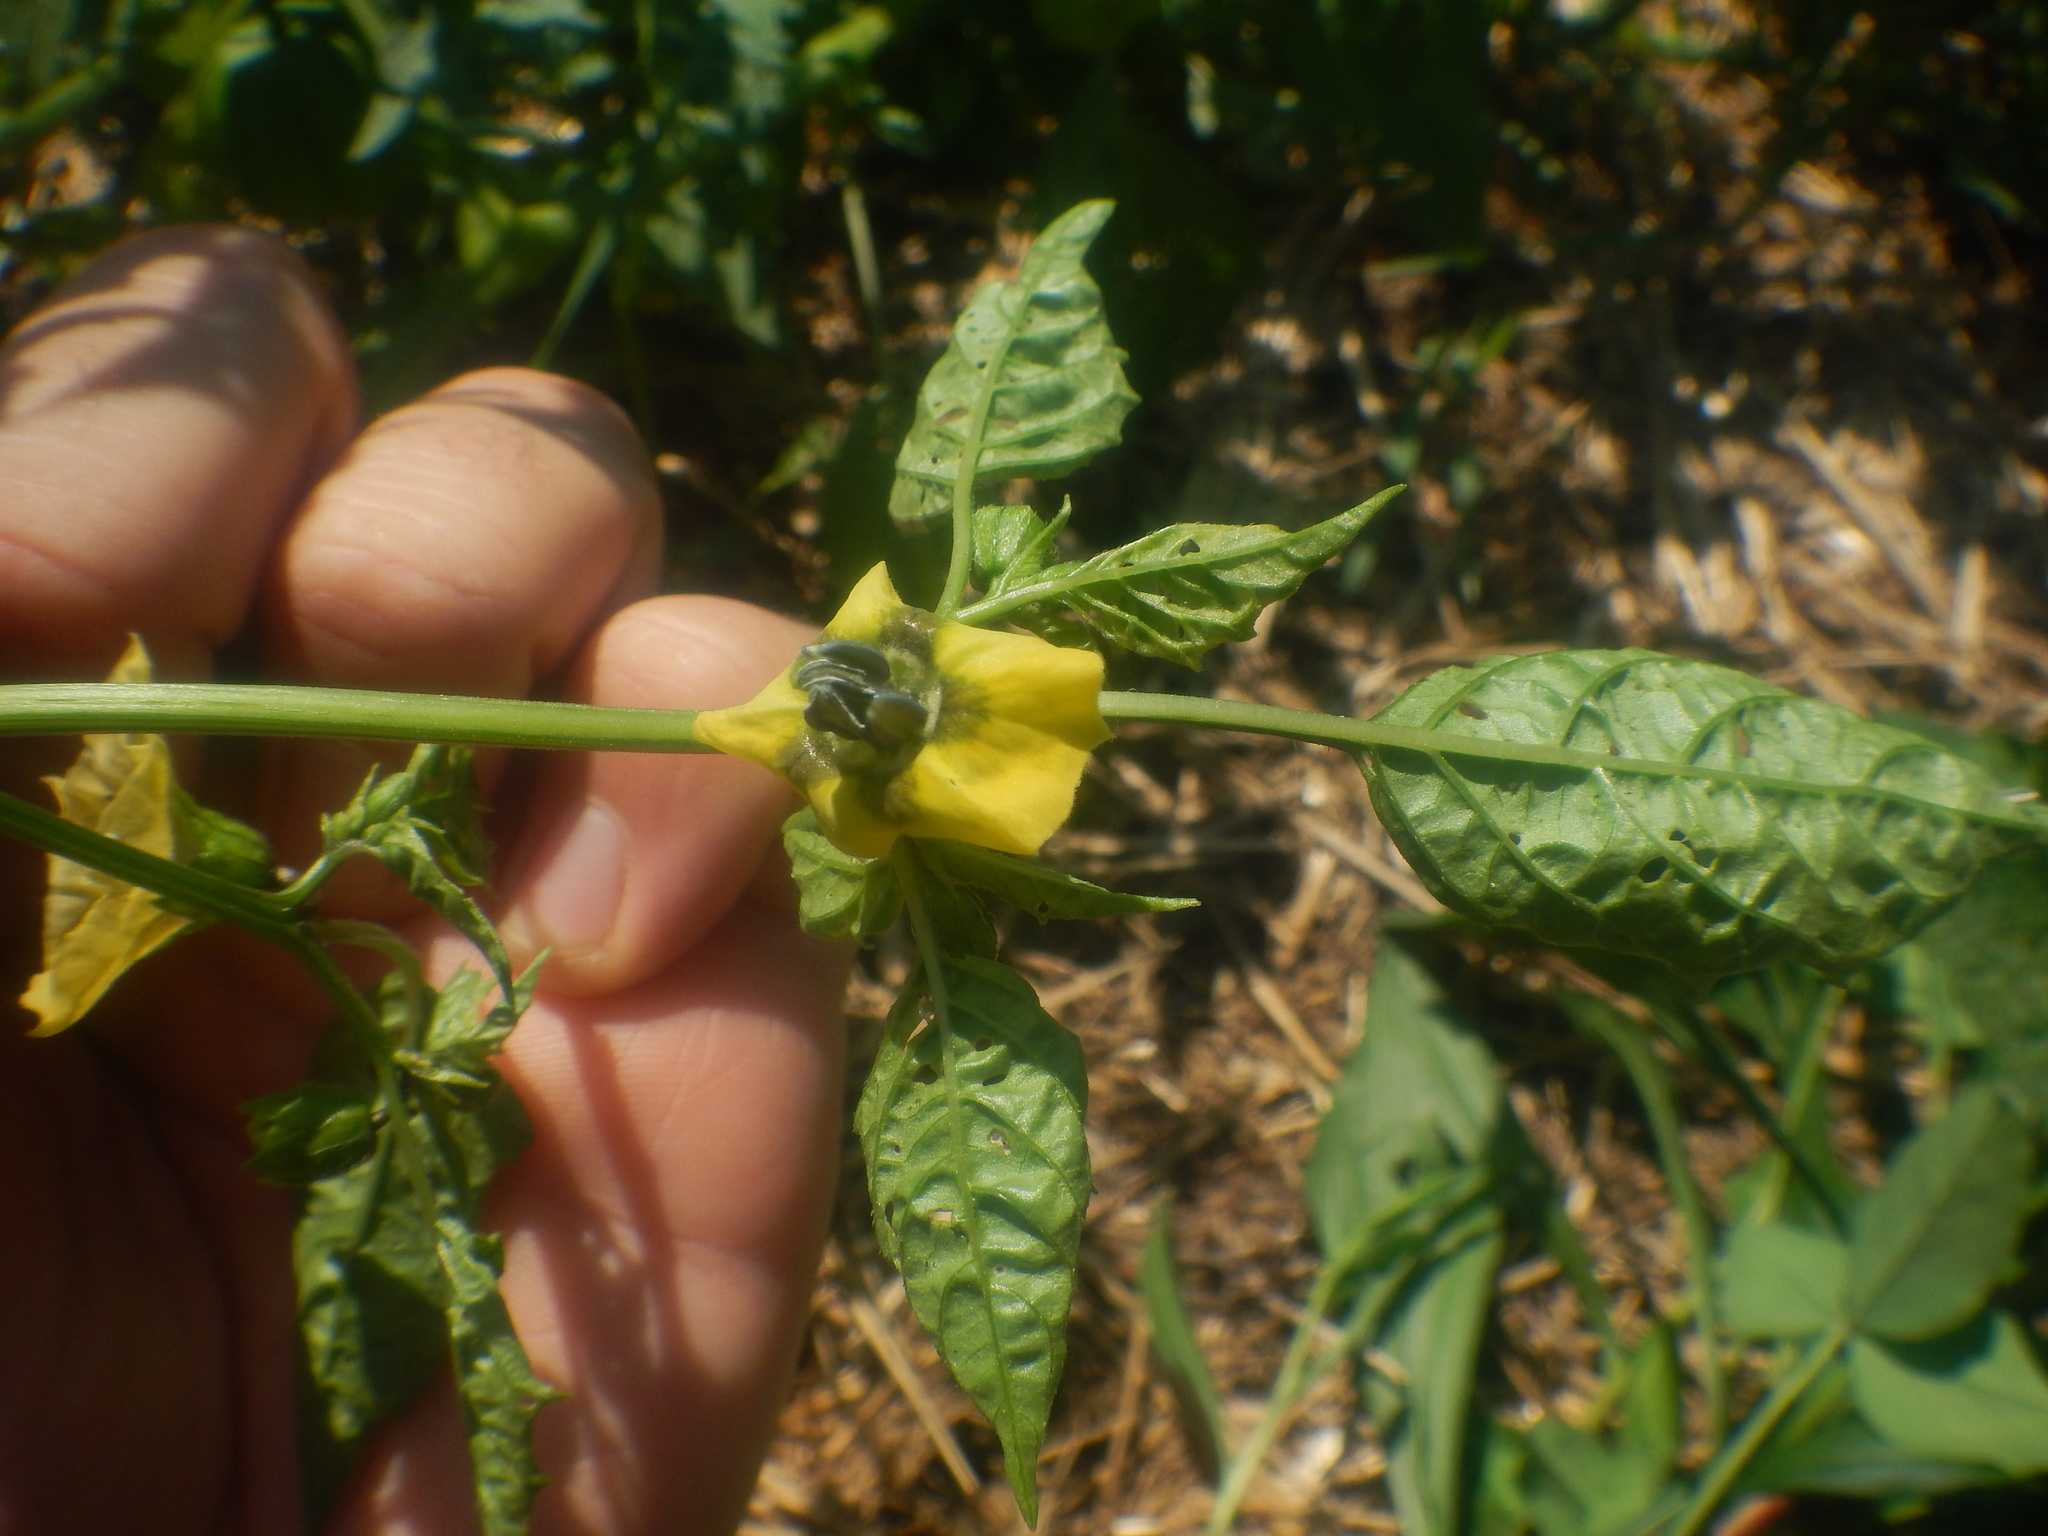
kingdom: Plantae
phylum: Tracheophyta
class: Magnoliopsida
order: Solanales
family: Solanaceae
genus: Physalis
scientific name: Physalis philadelphica
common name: Husk-tomato
